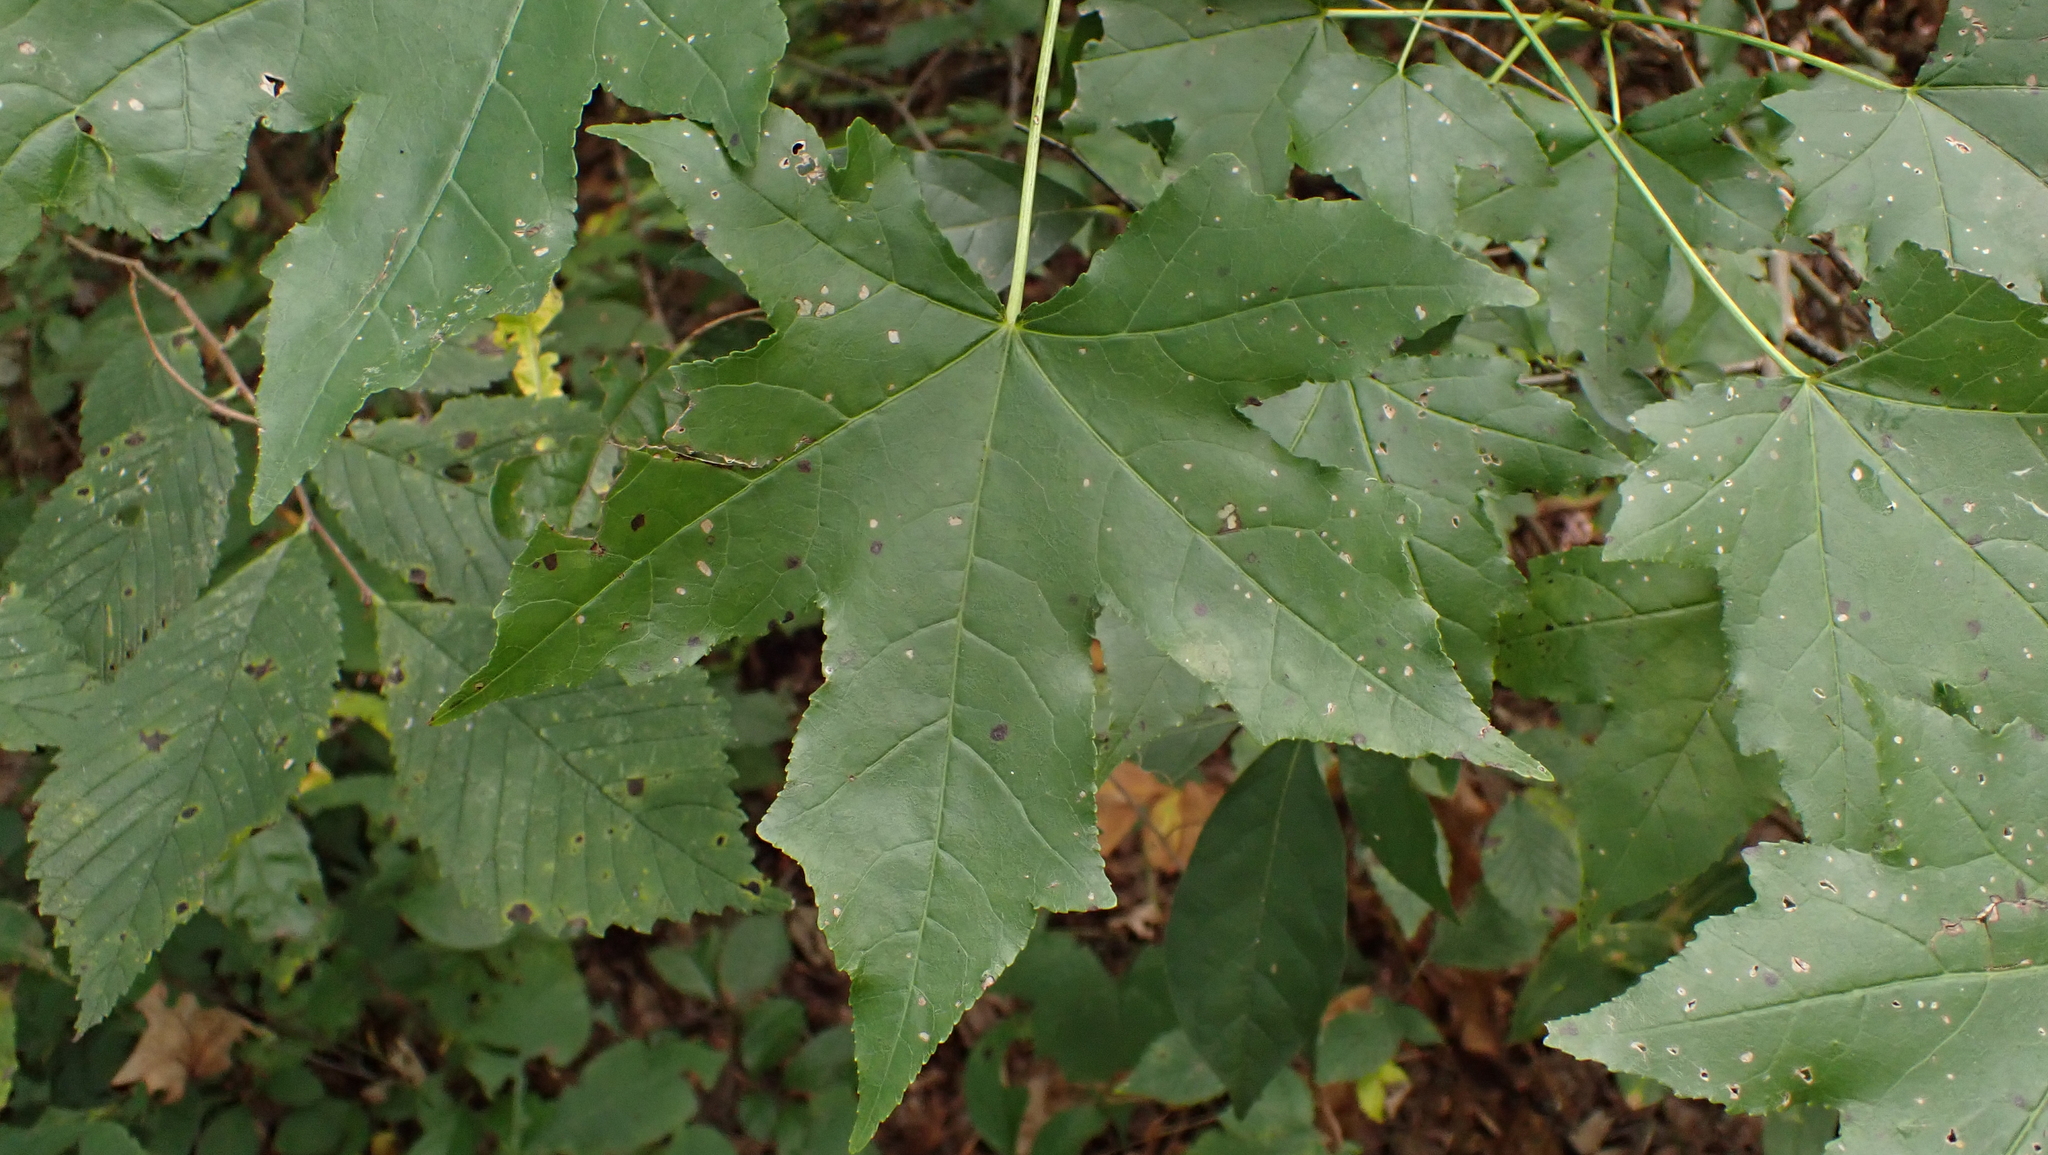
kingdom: Plantae
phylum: Tracheophyta
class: Magnoliopsida
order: Saxifragales
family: Altingiaceae
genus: Liquidambar
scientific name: Liquidambar styraciflua
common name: Sweet gum
